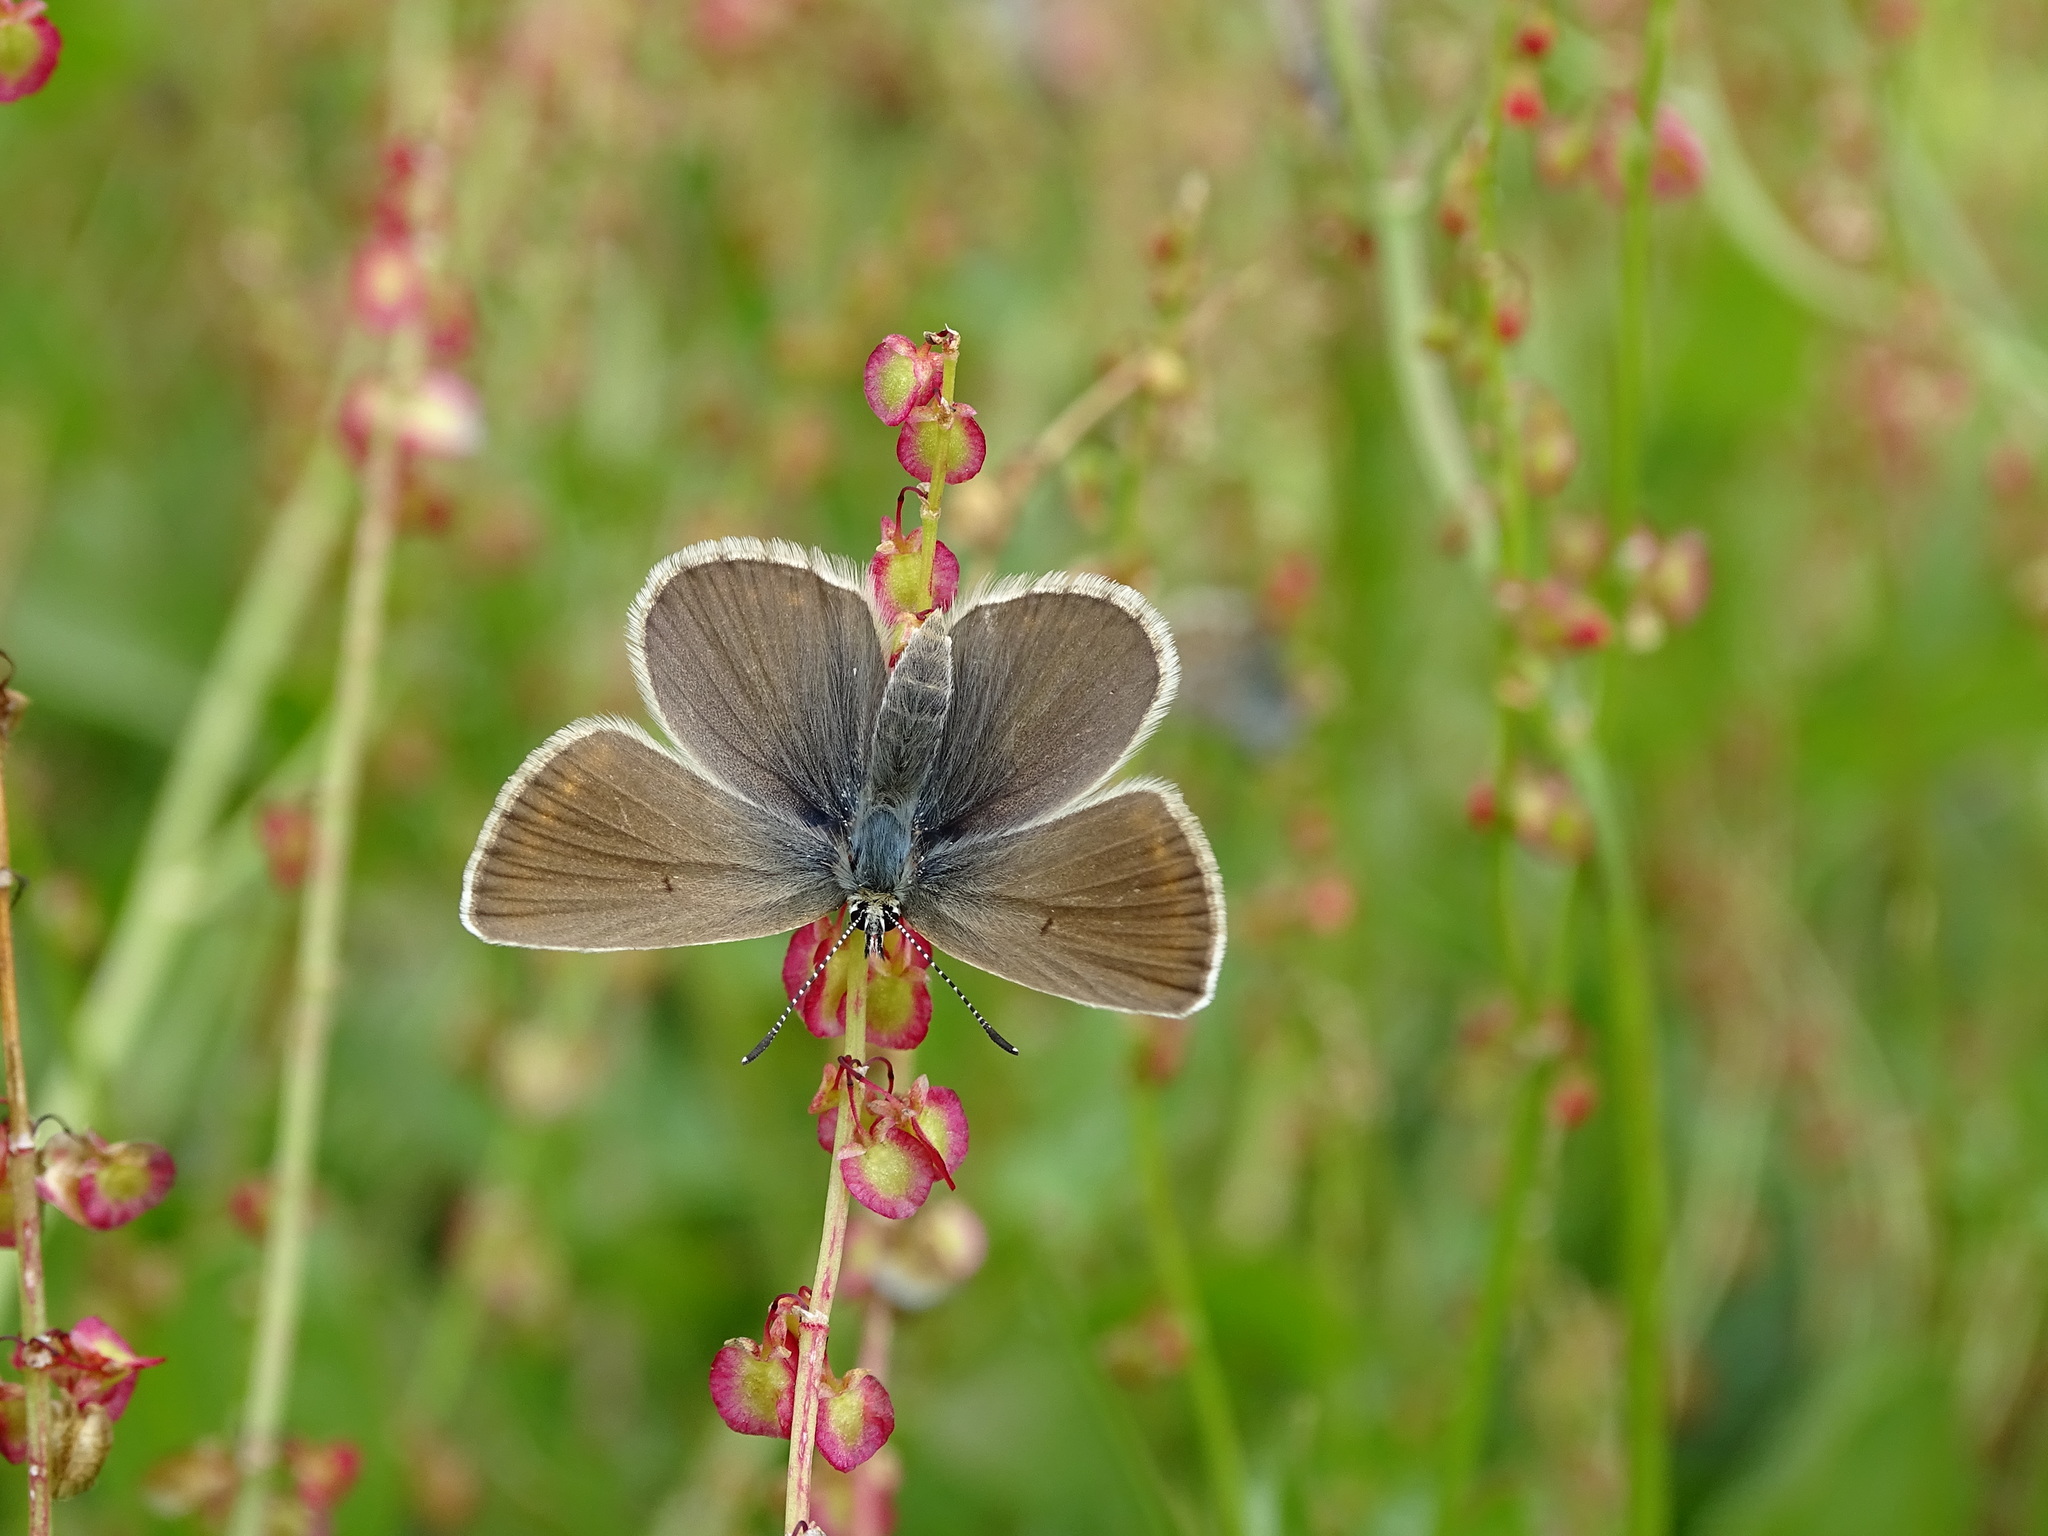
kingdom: Animalia
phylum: Arthropoda
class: Insecta
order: Lepidoptera
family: Lycaenidae
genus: Pseudoaricia
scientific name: Pseudoaricia nicias
